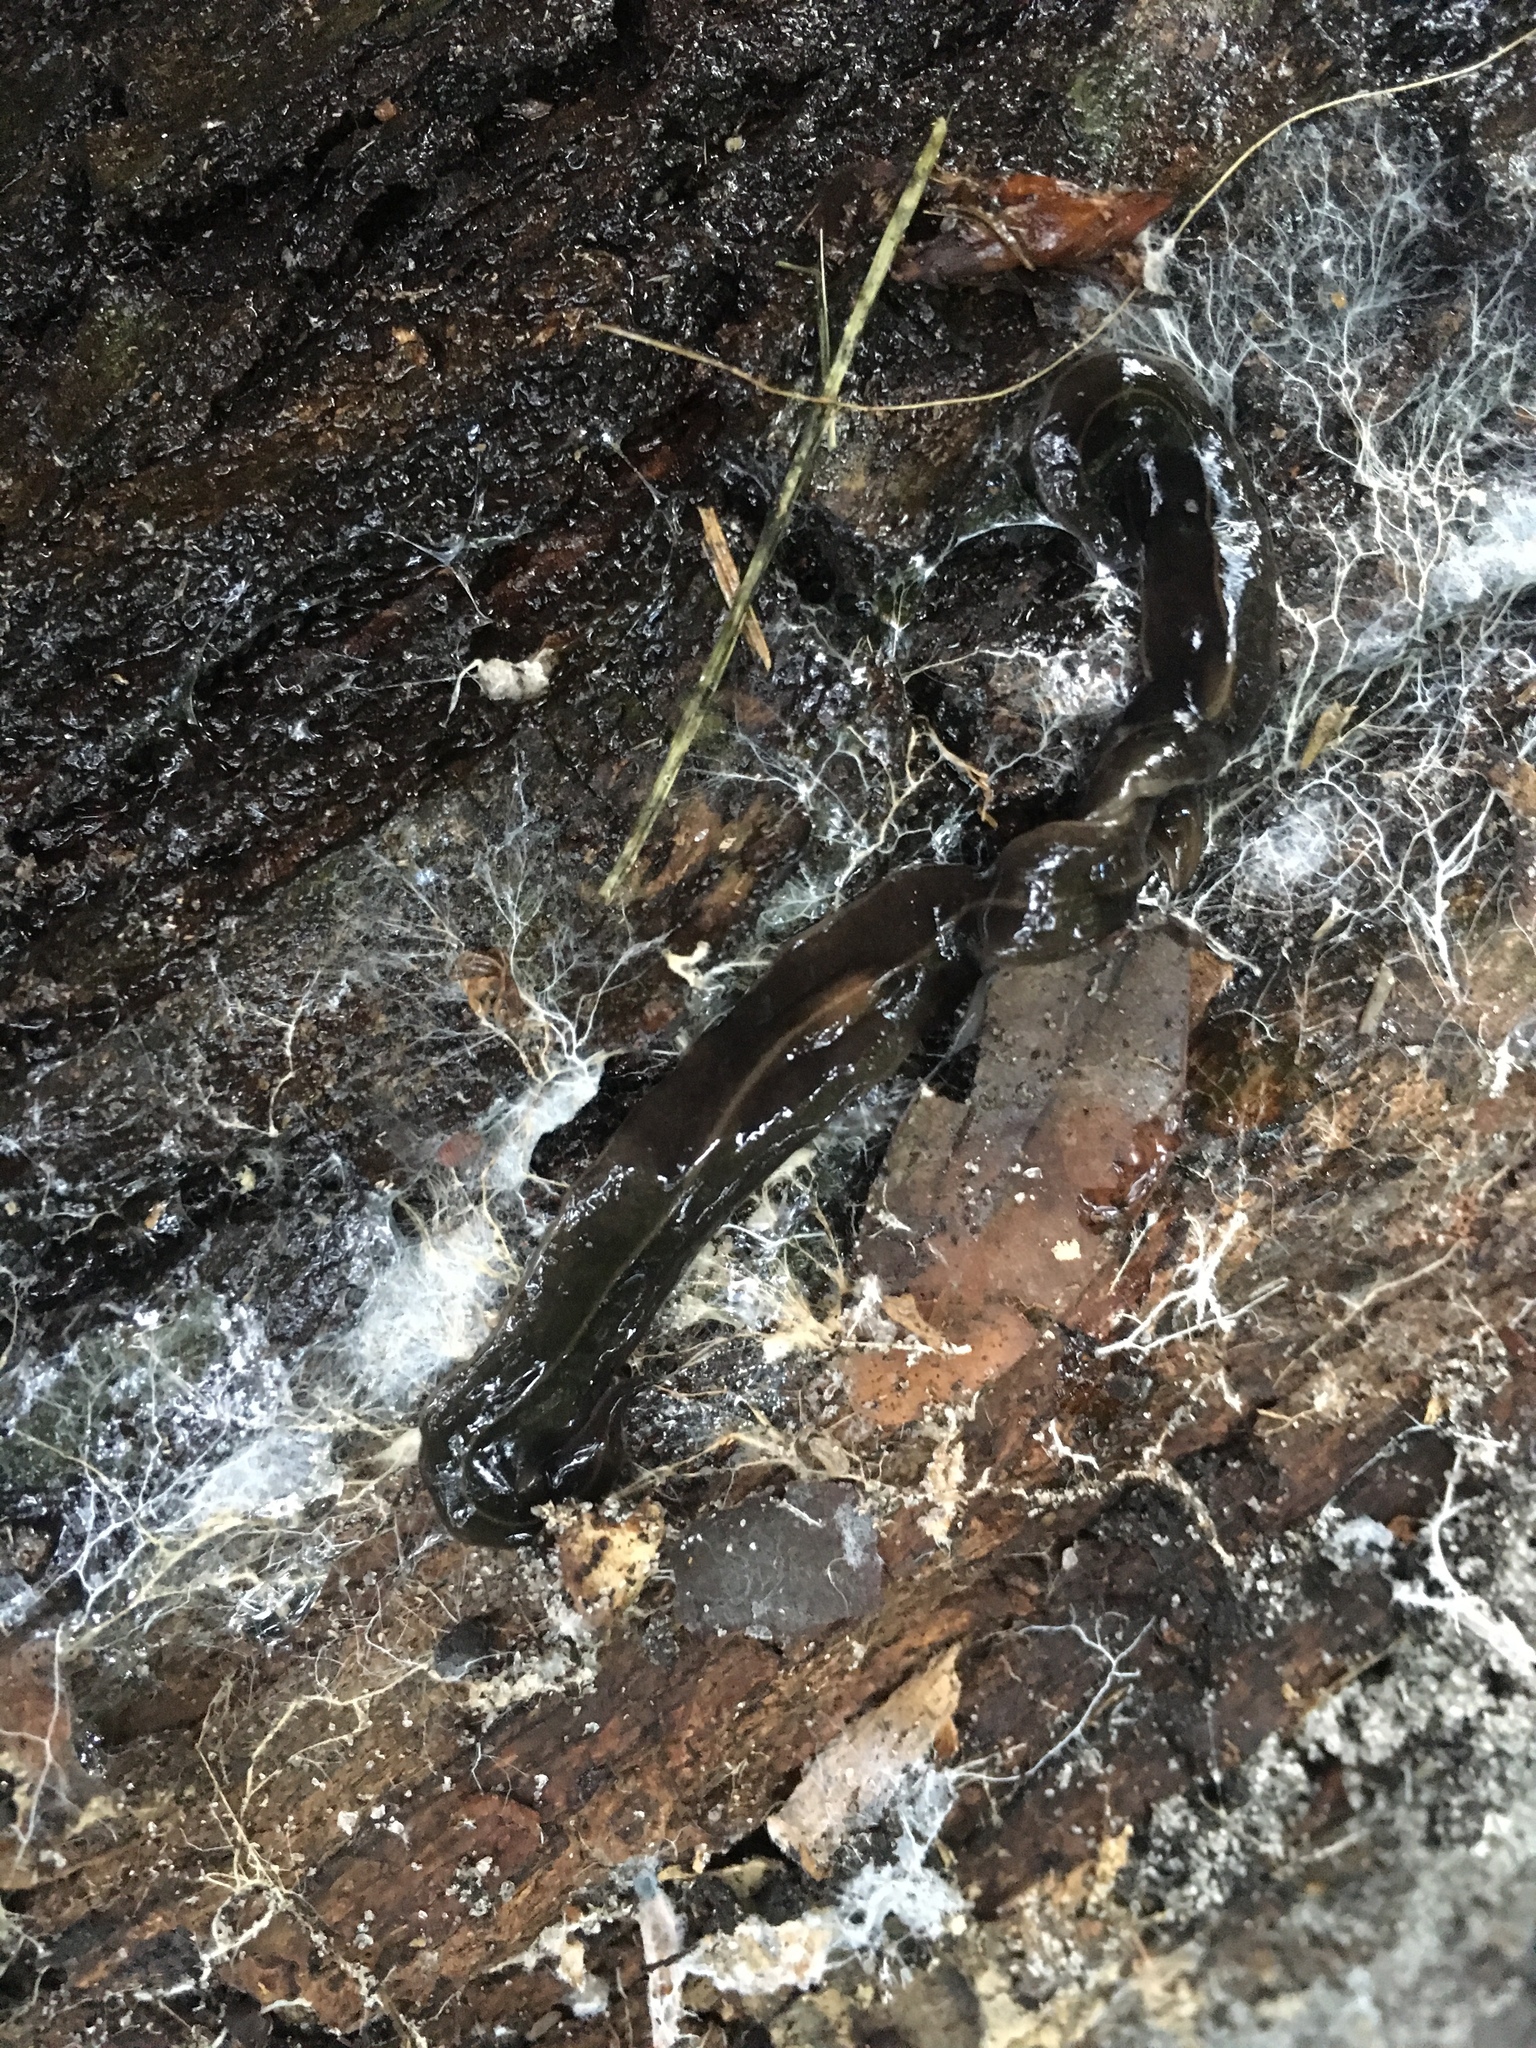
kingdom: Animalia
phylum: Platyhelminthes
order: Tricladida
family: Geoplanidae
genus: Platydemus
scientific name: Platydemus manokwari
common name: New guinea flatworm
